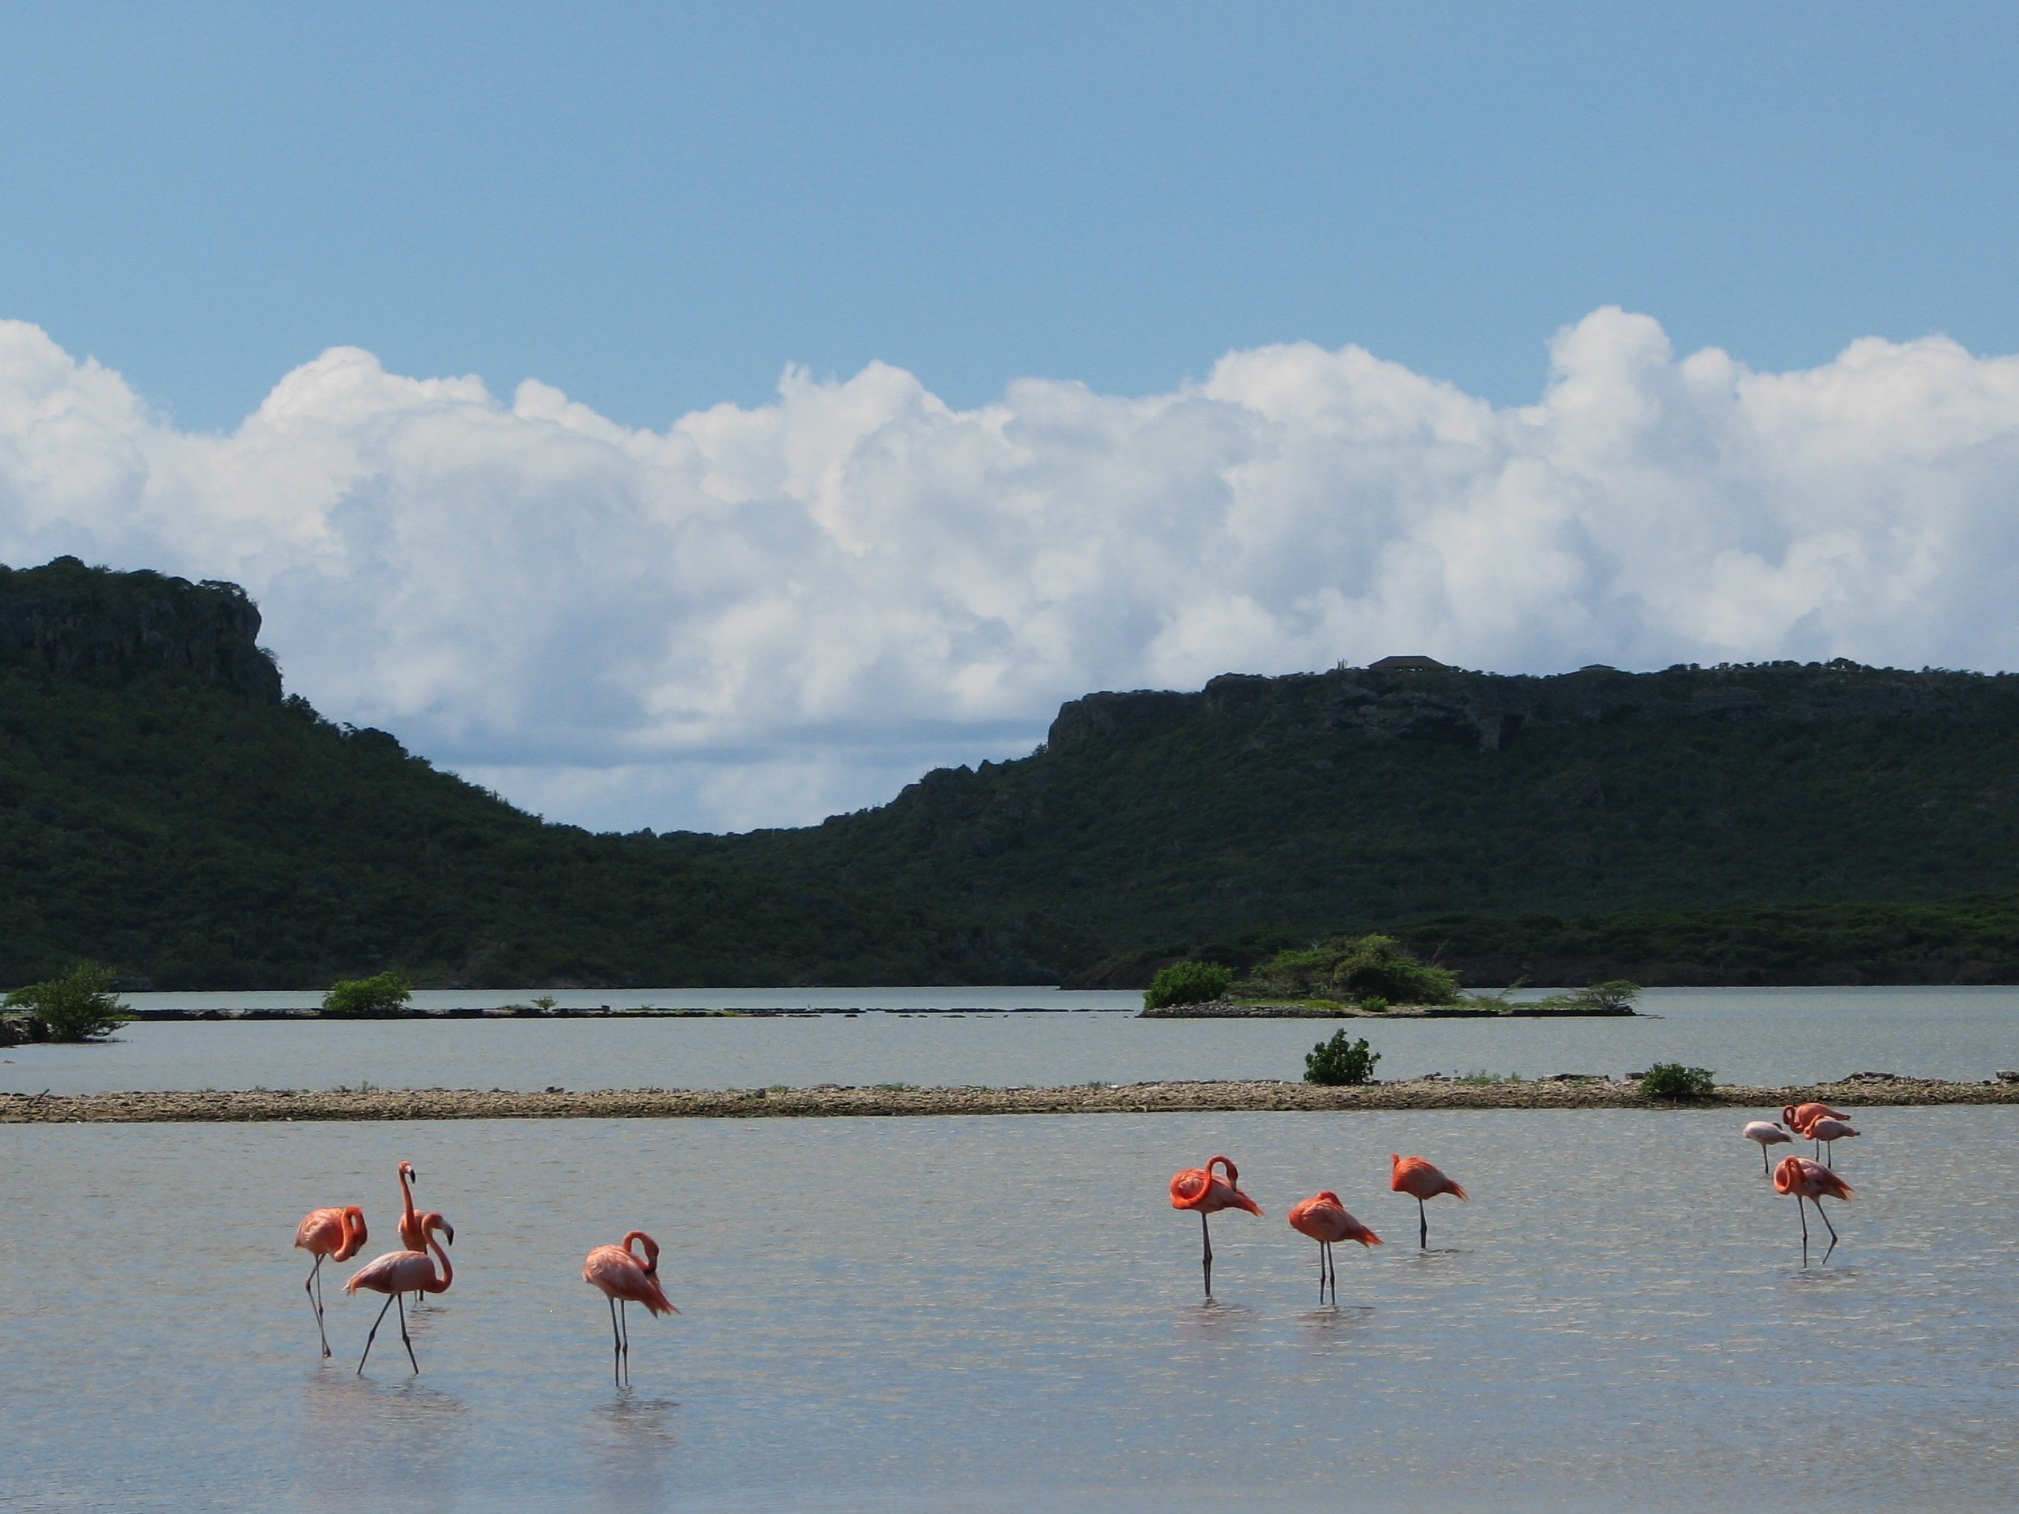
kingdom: Animalia
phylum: Chordata
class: Aves
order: Phoenicopteriformes
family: Phoenicopteridae
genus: Phoenicopterus
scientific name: Phoenicopterus ruber
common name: American flamingo
